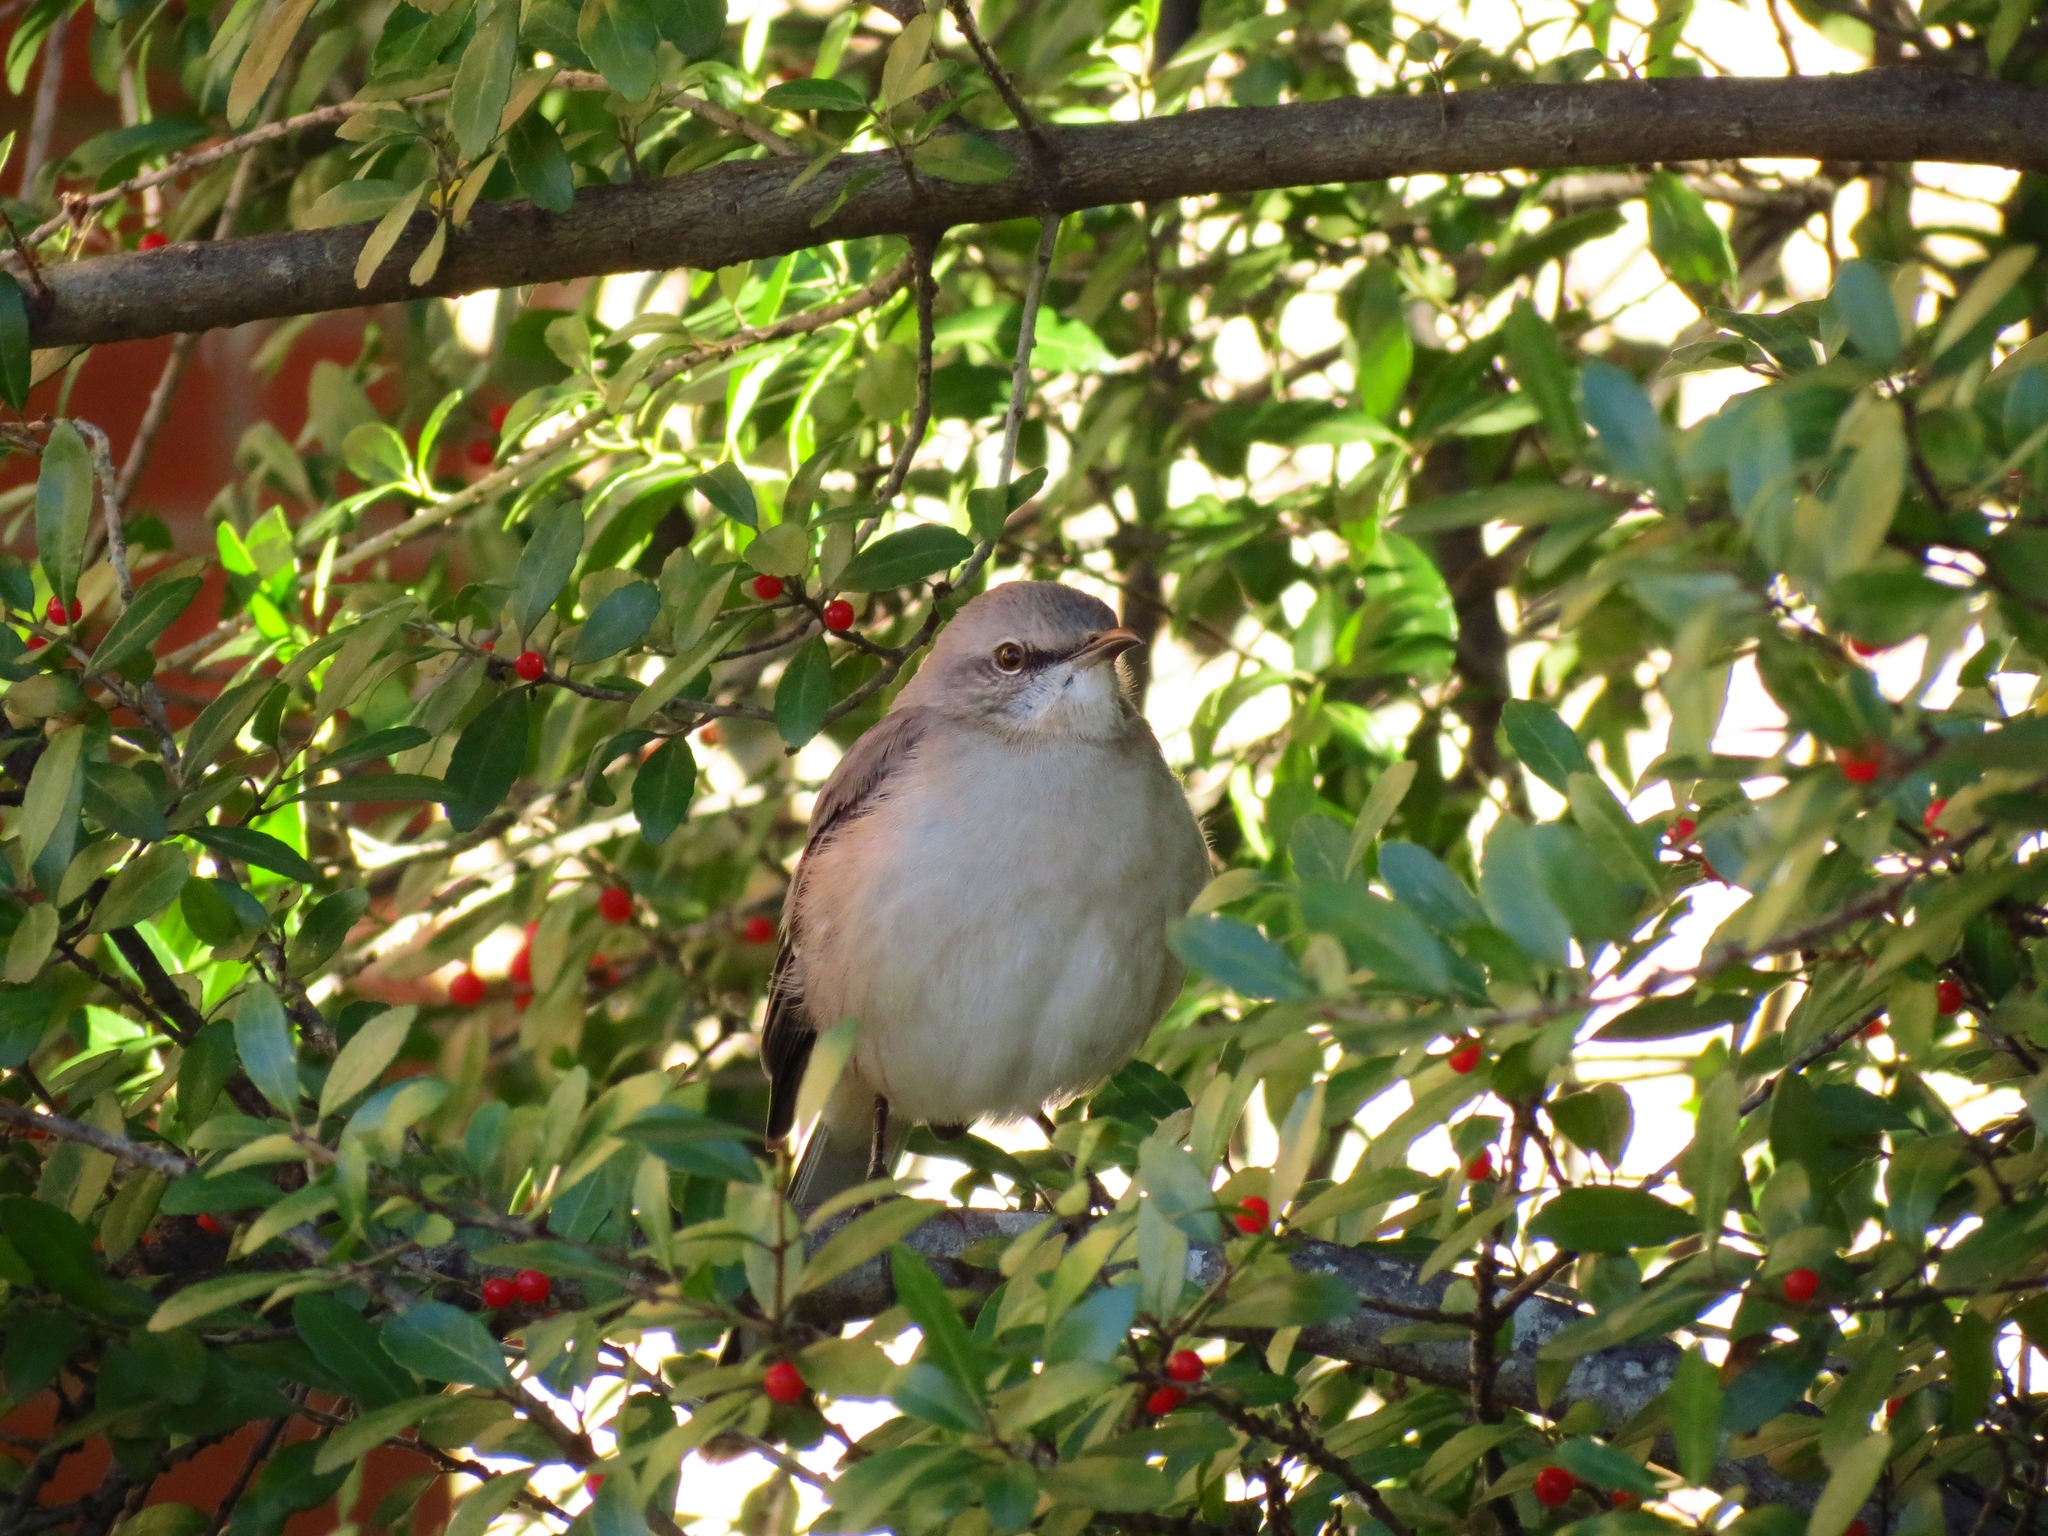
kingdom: Animalia
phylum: Chordata
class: Aves
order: Passeriformes
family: Mimidae
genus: Mimus
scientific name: Mimus polyglottos
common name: Northern mockingbird
